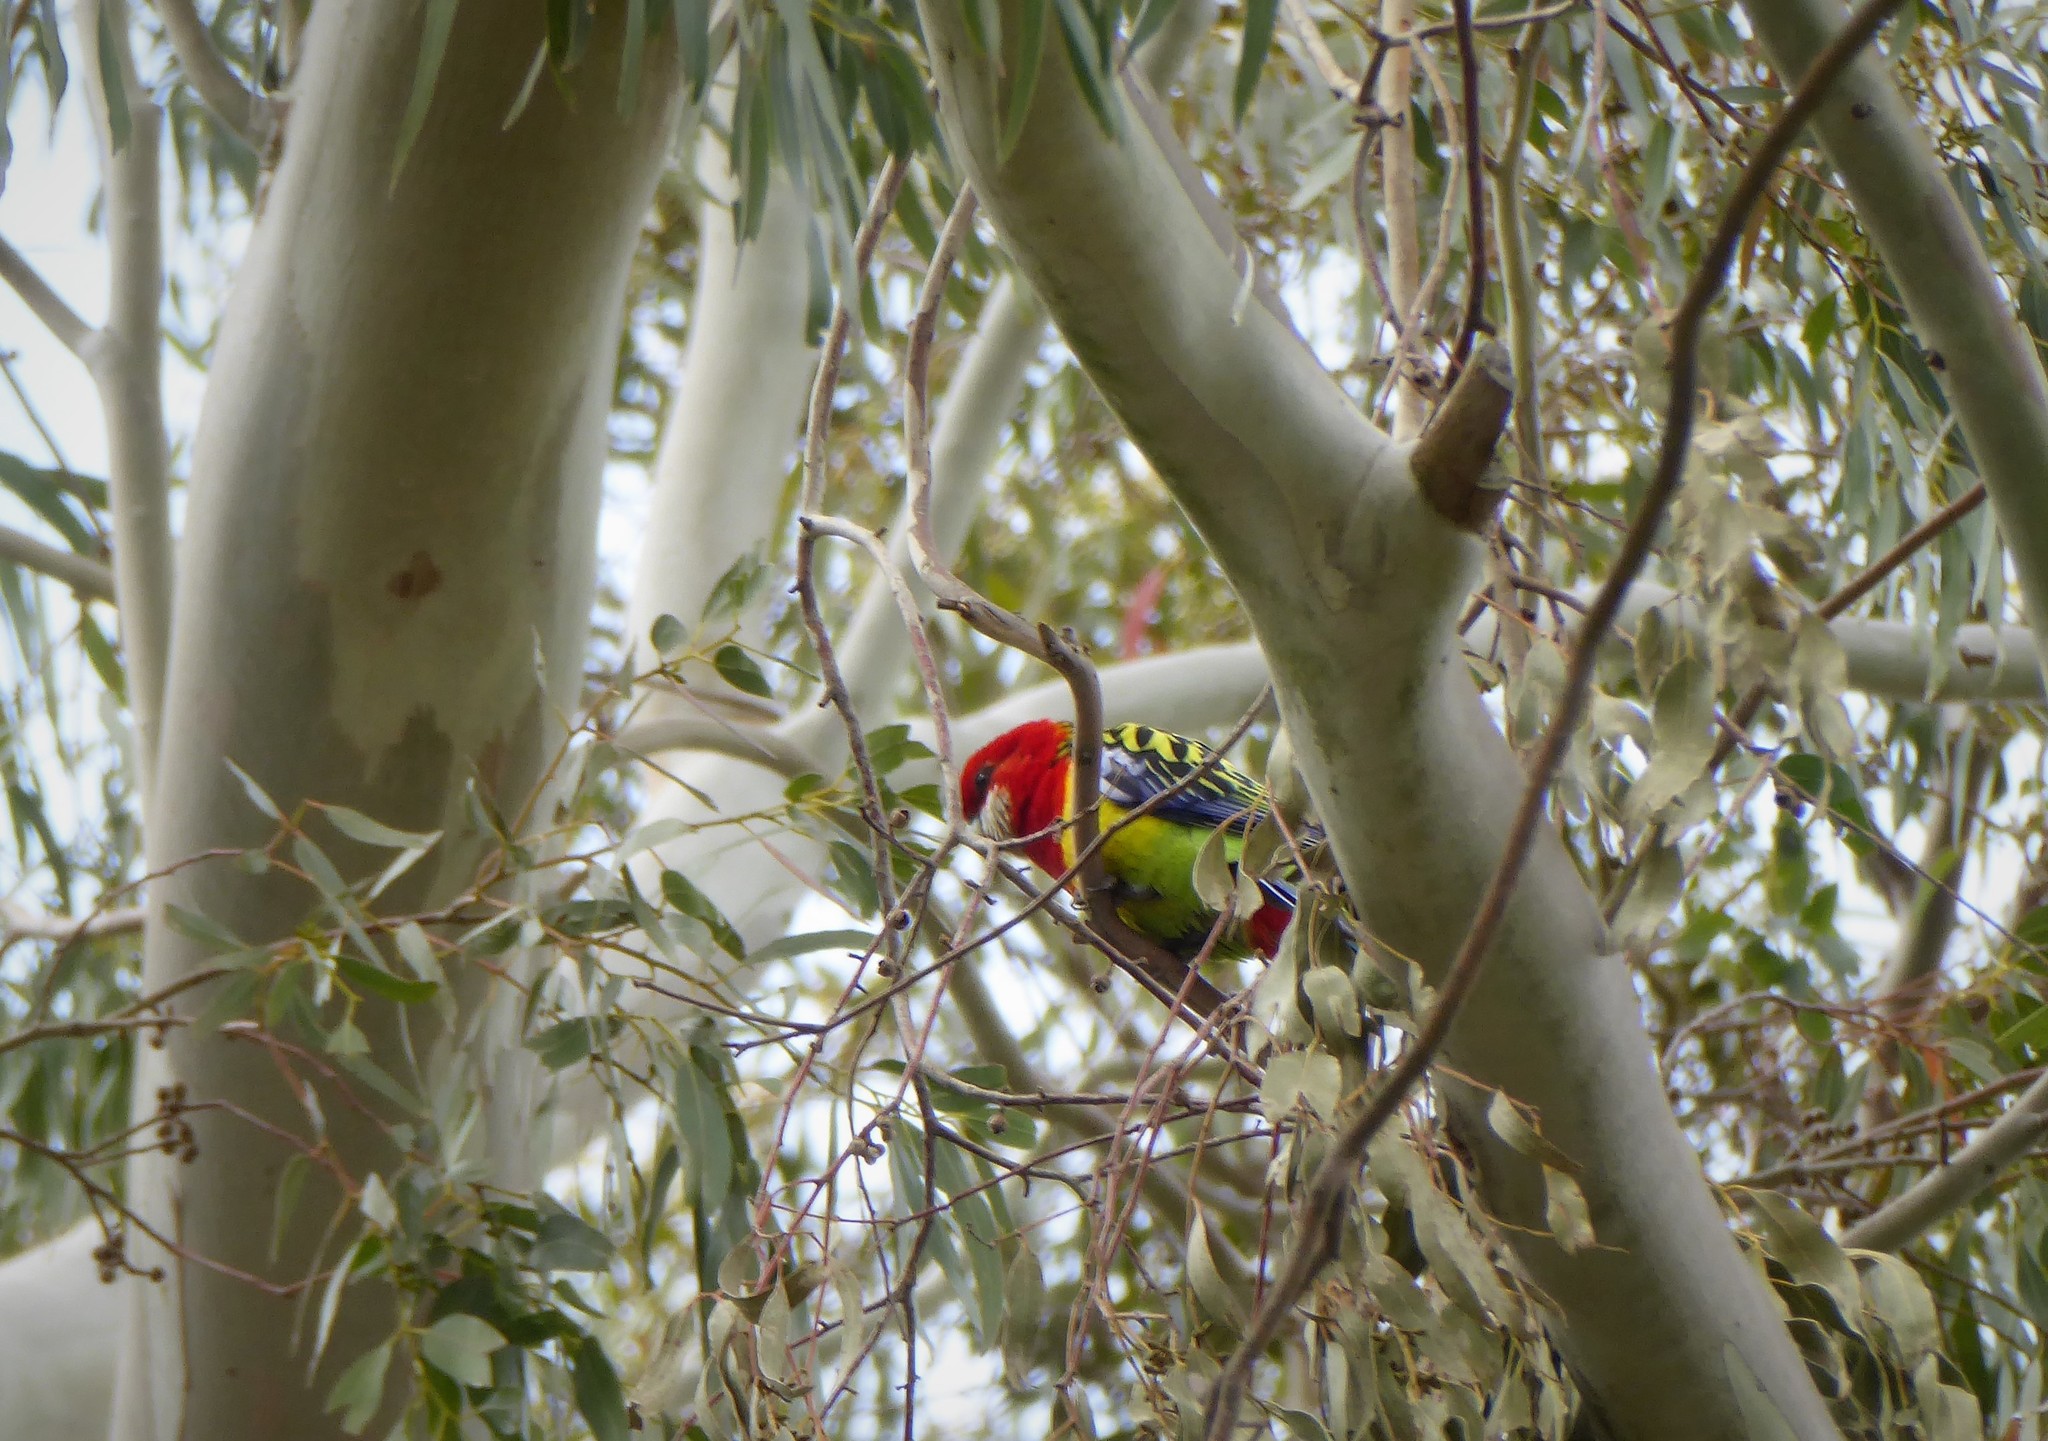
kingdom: Animalia
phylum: Chordata
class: Aves
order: Psittaciformes
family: Psittacidae
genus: Platycercus
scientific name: Platycercus eximius
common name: Eastern rosella
